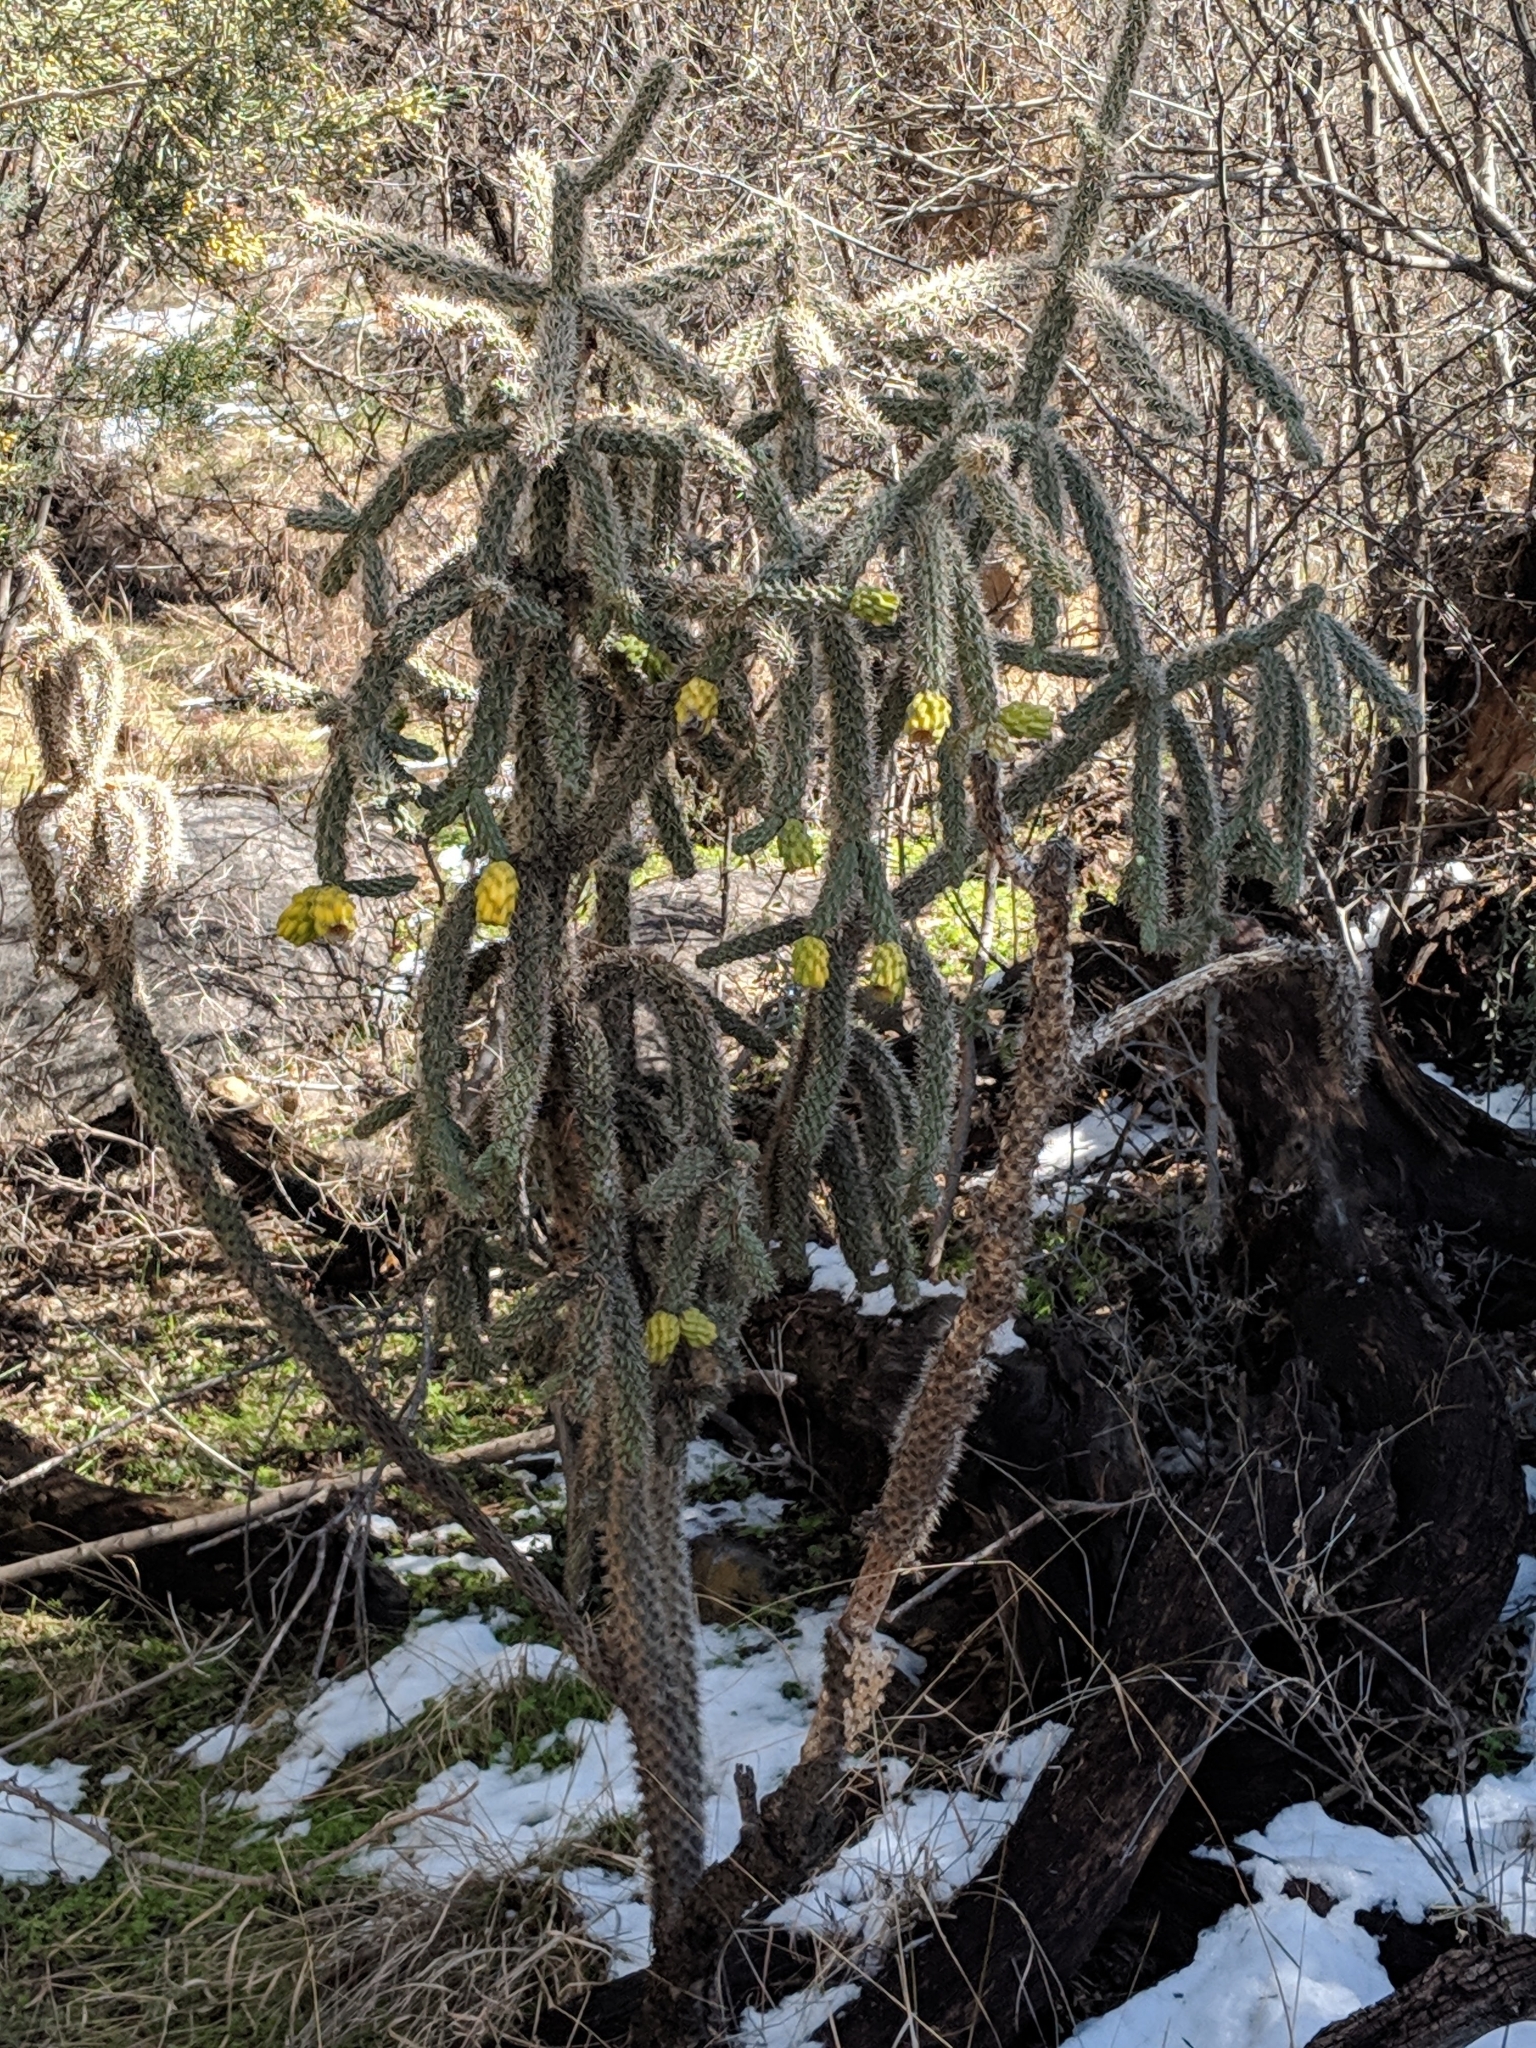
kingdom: Plantae
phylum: Tracheophyta
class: Magnoliopsida
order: Caryophyllales
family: Cactaceae
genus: Cylindropuntia
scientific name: Cylindropuntia imbricata
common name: Candelabrum cactus
